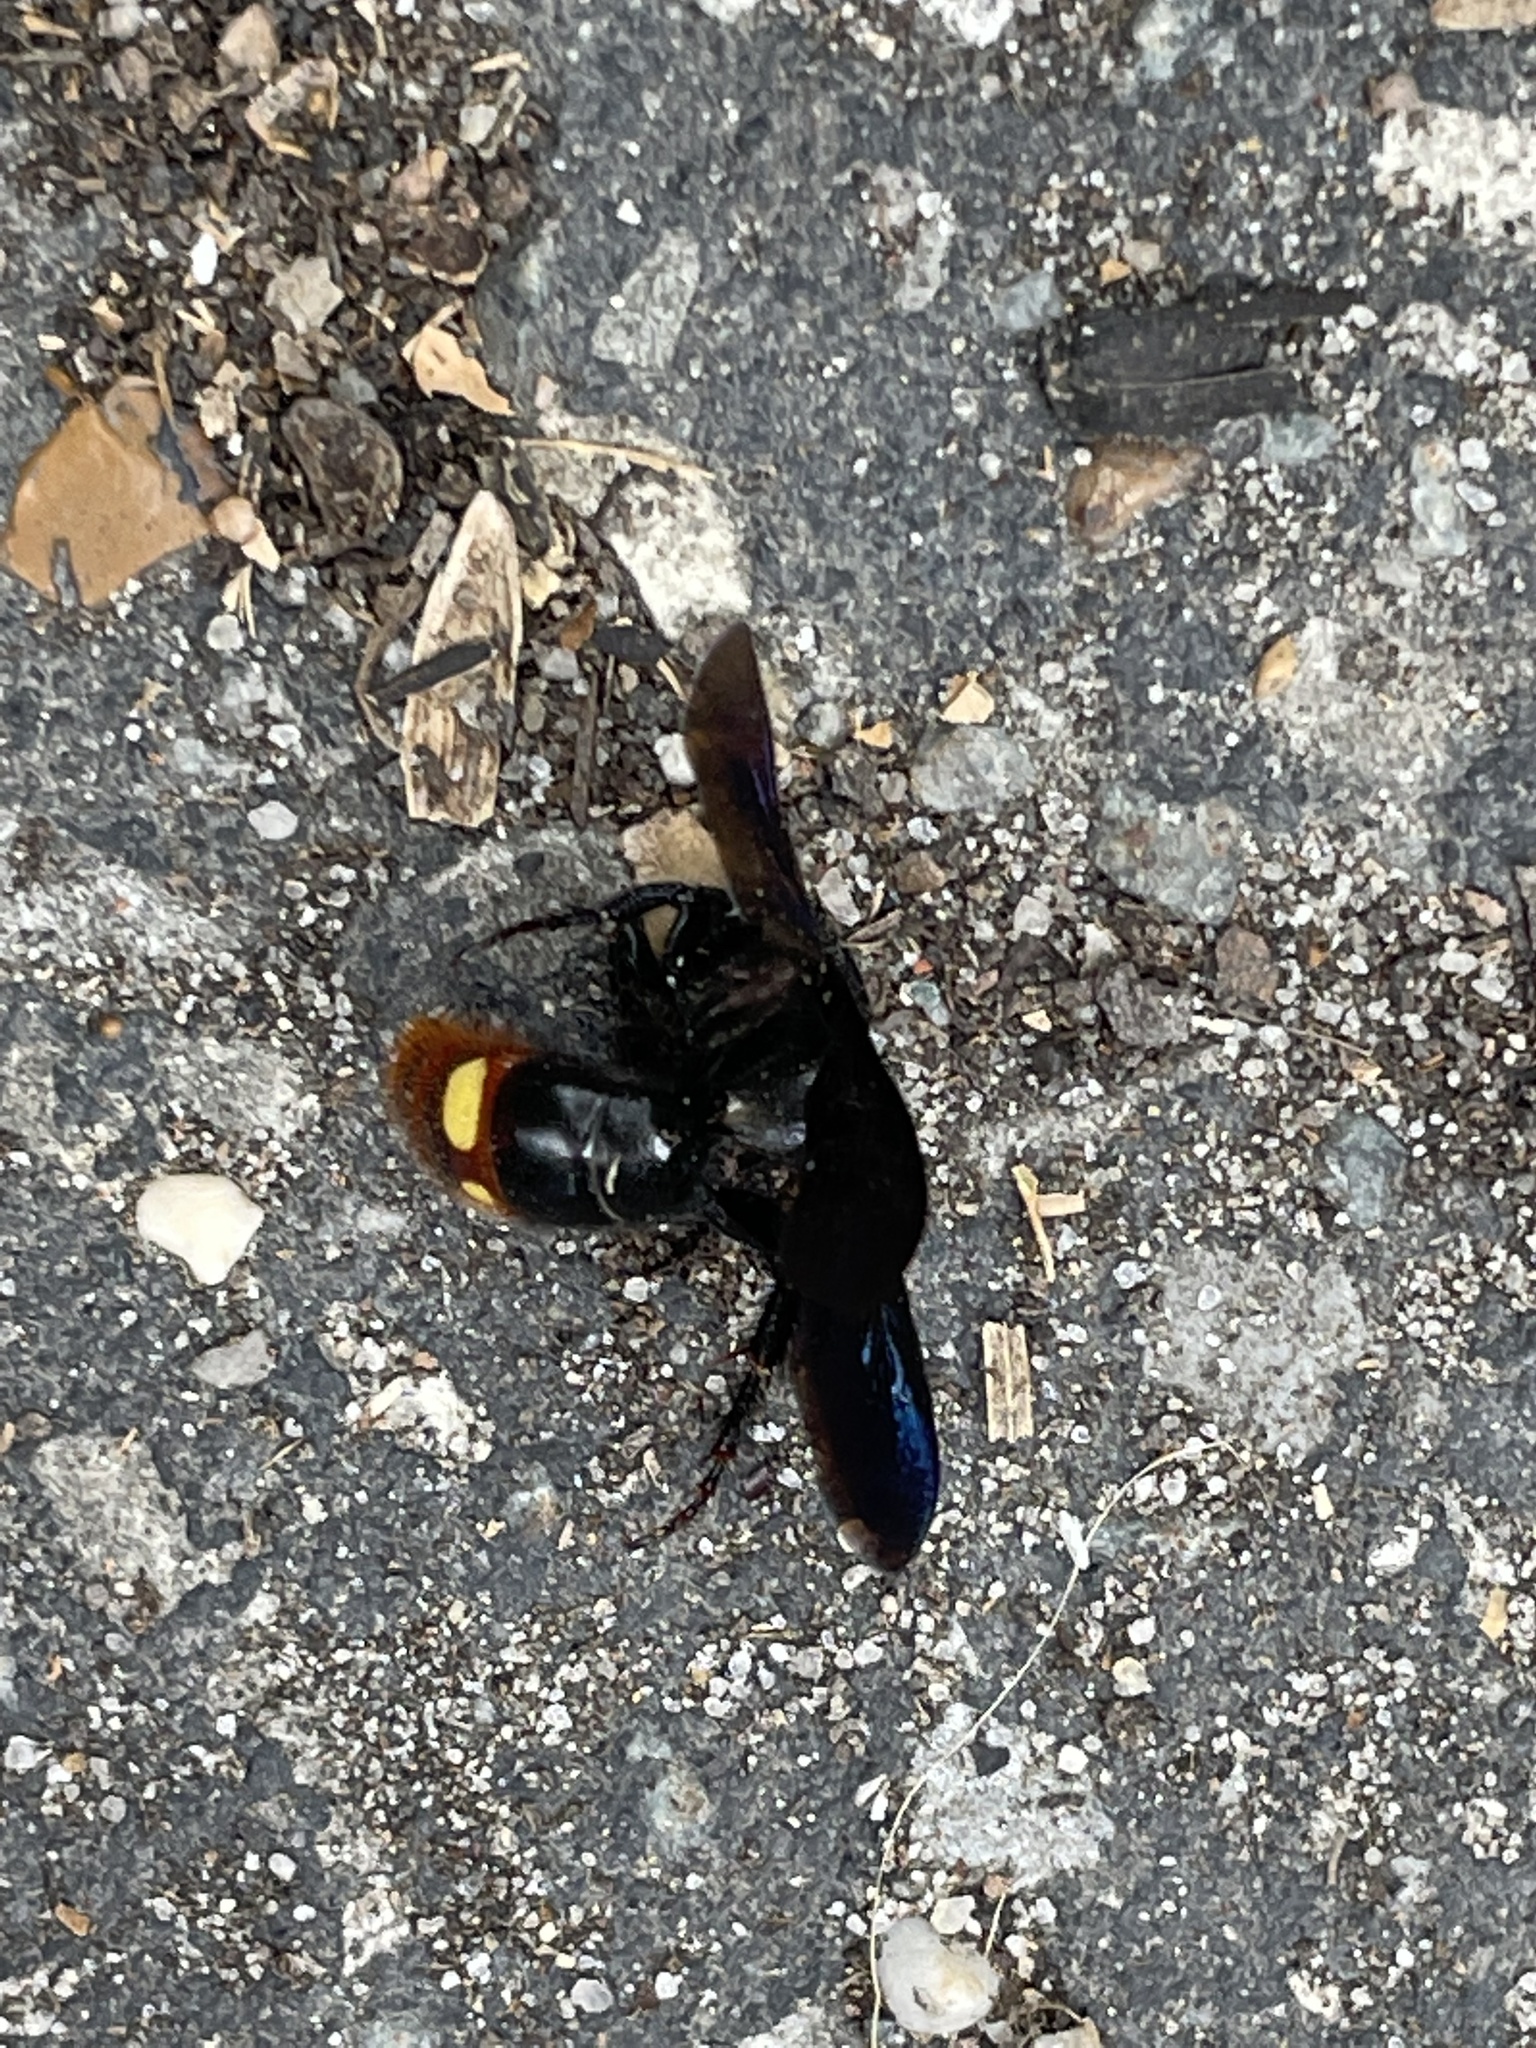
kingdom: Animalia
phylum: Arthropoda
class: Insecta
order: Hymenoptera
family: Scoliidae
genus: Scolia
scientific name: Scolia dubia
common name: Blue-winged scoliid wasp
